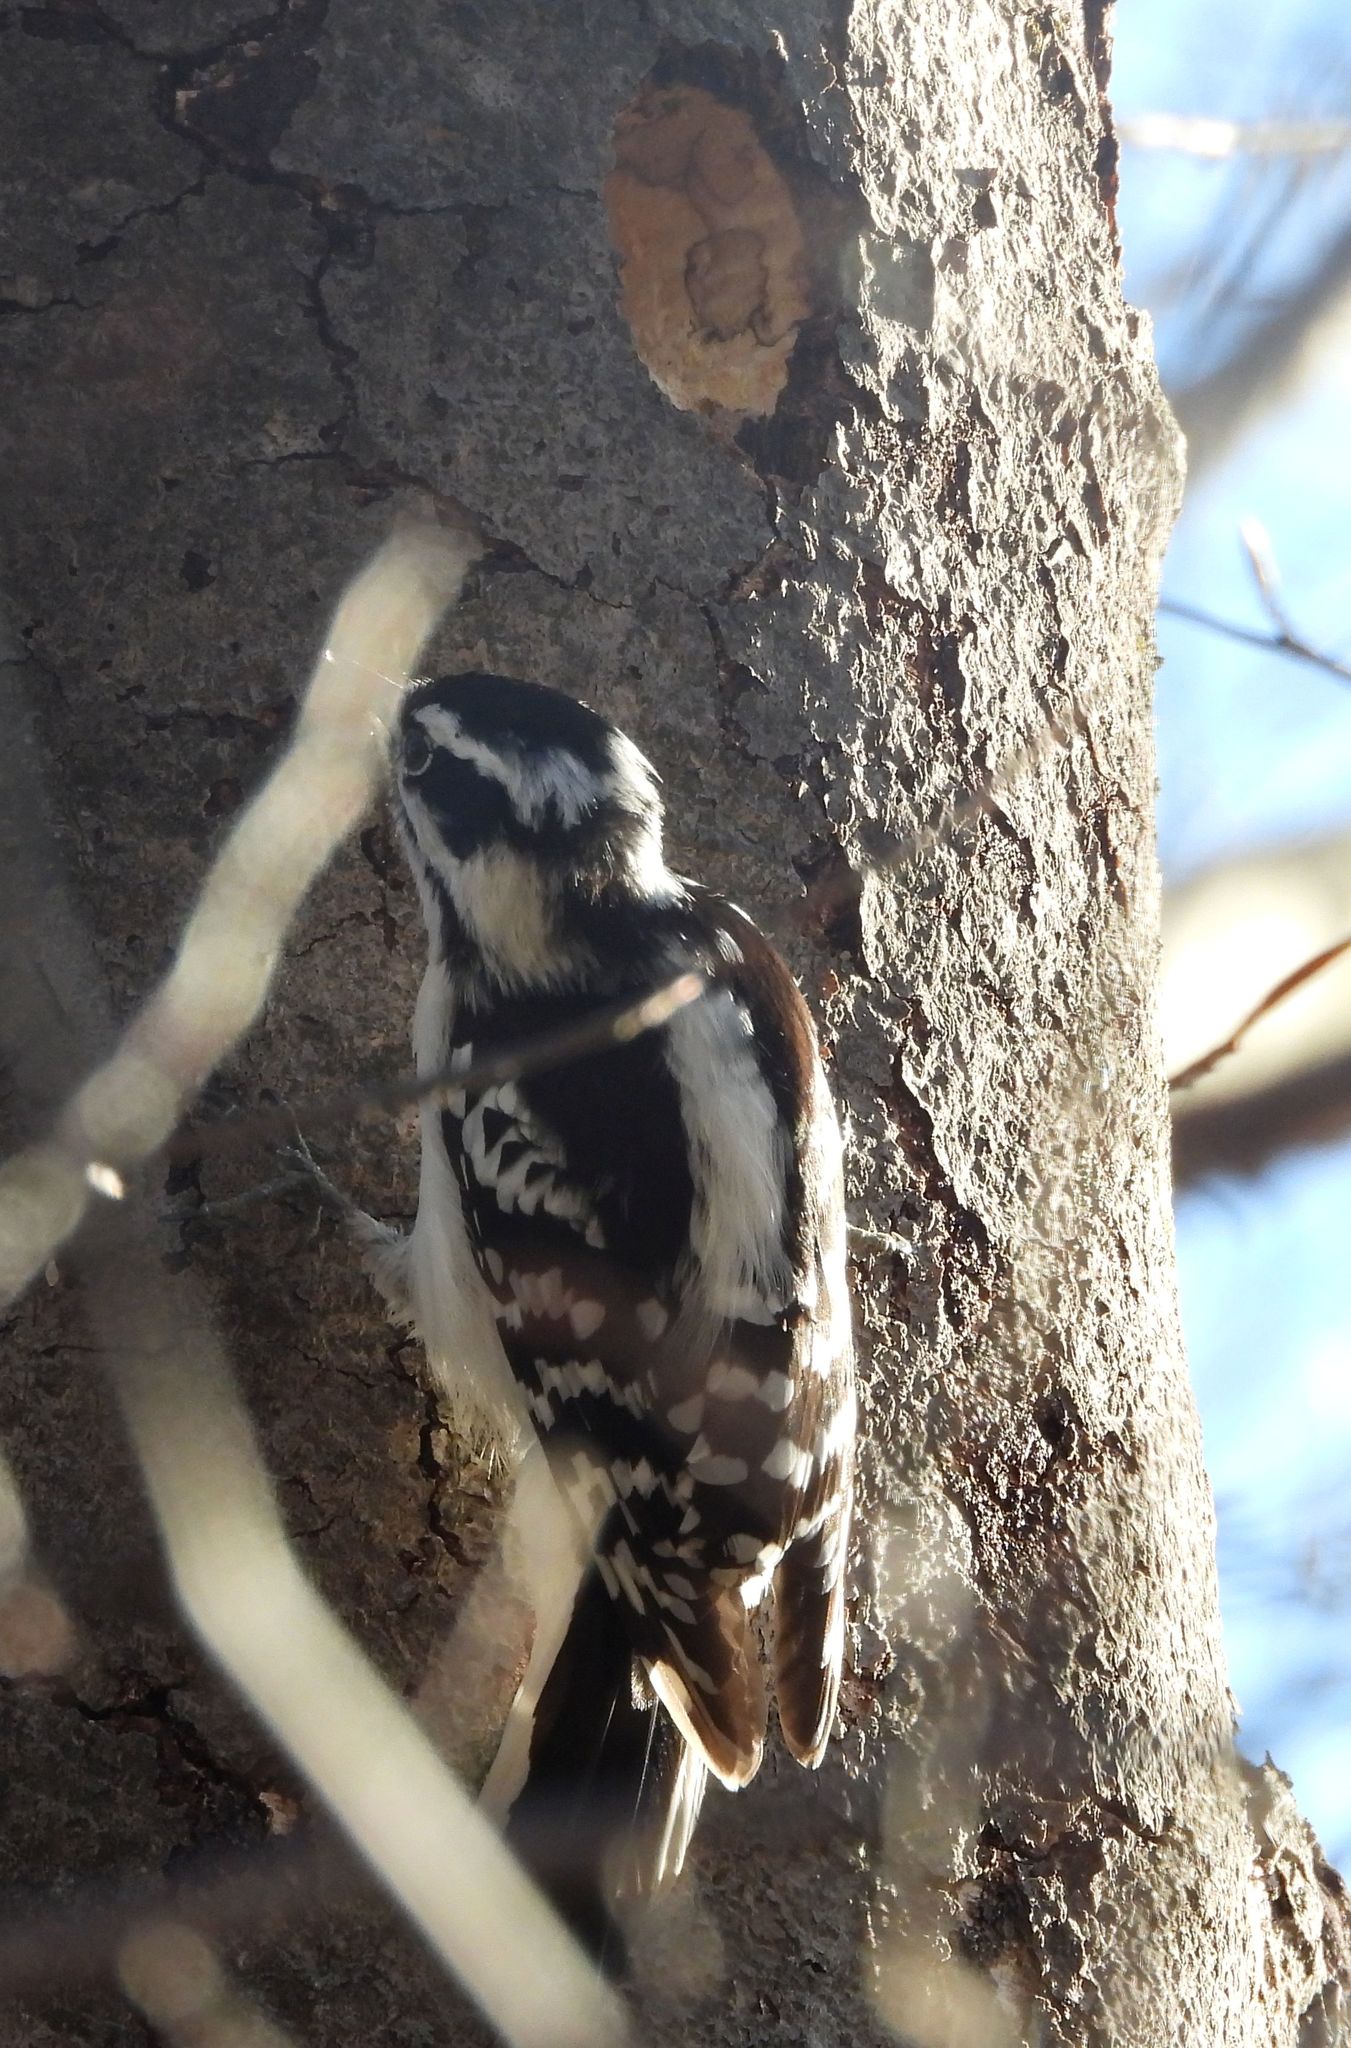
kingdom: Animalia
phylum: Chordata
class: Aves
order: Piciformes
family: Picidae
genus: Dryobates
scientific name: Dryobates pubescens
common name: Downy woodpecker
